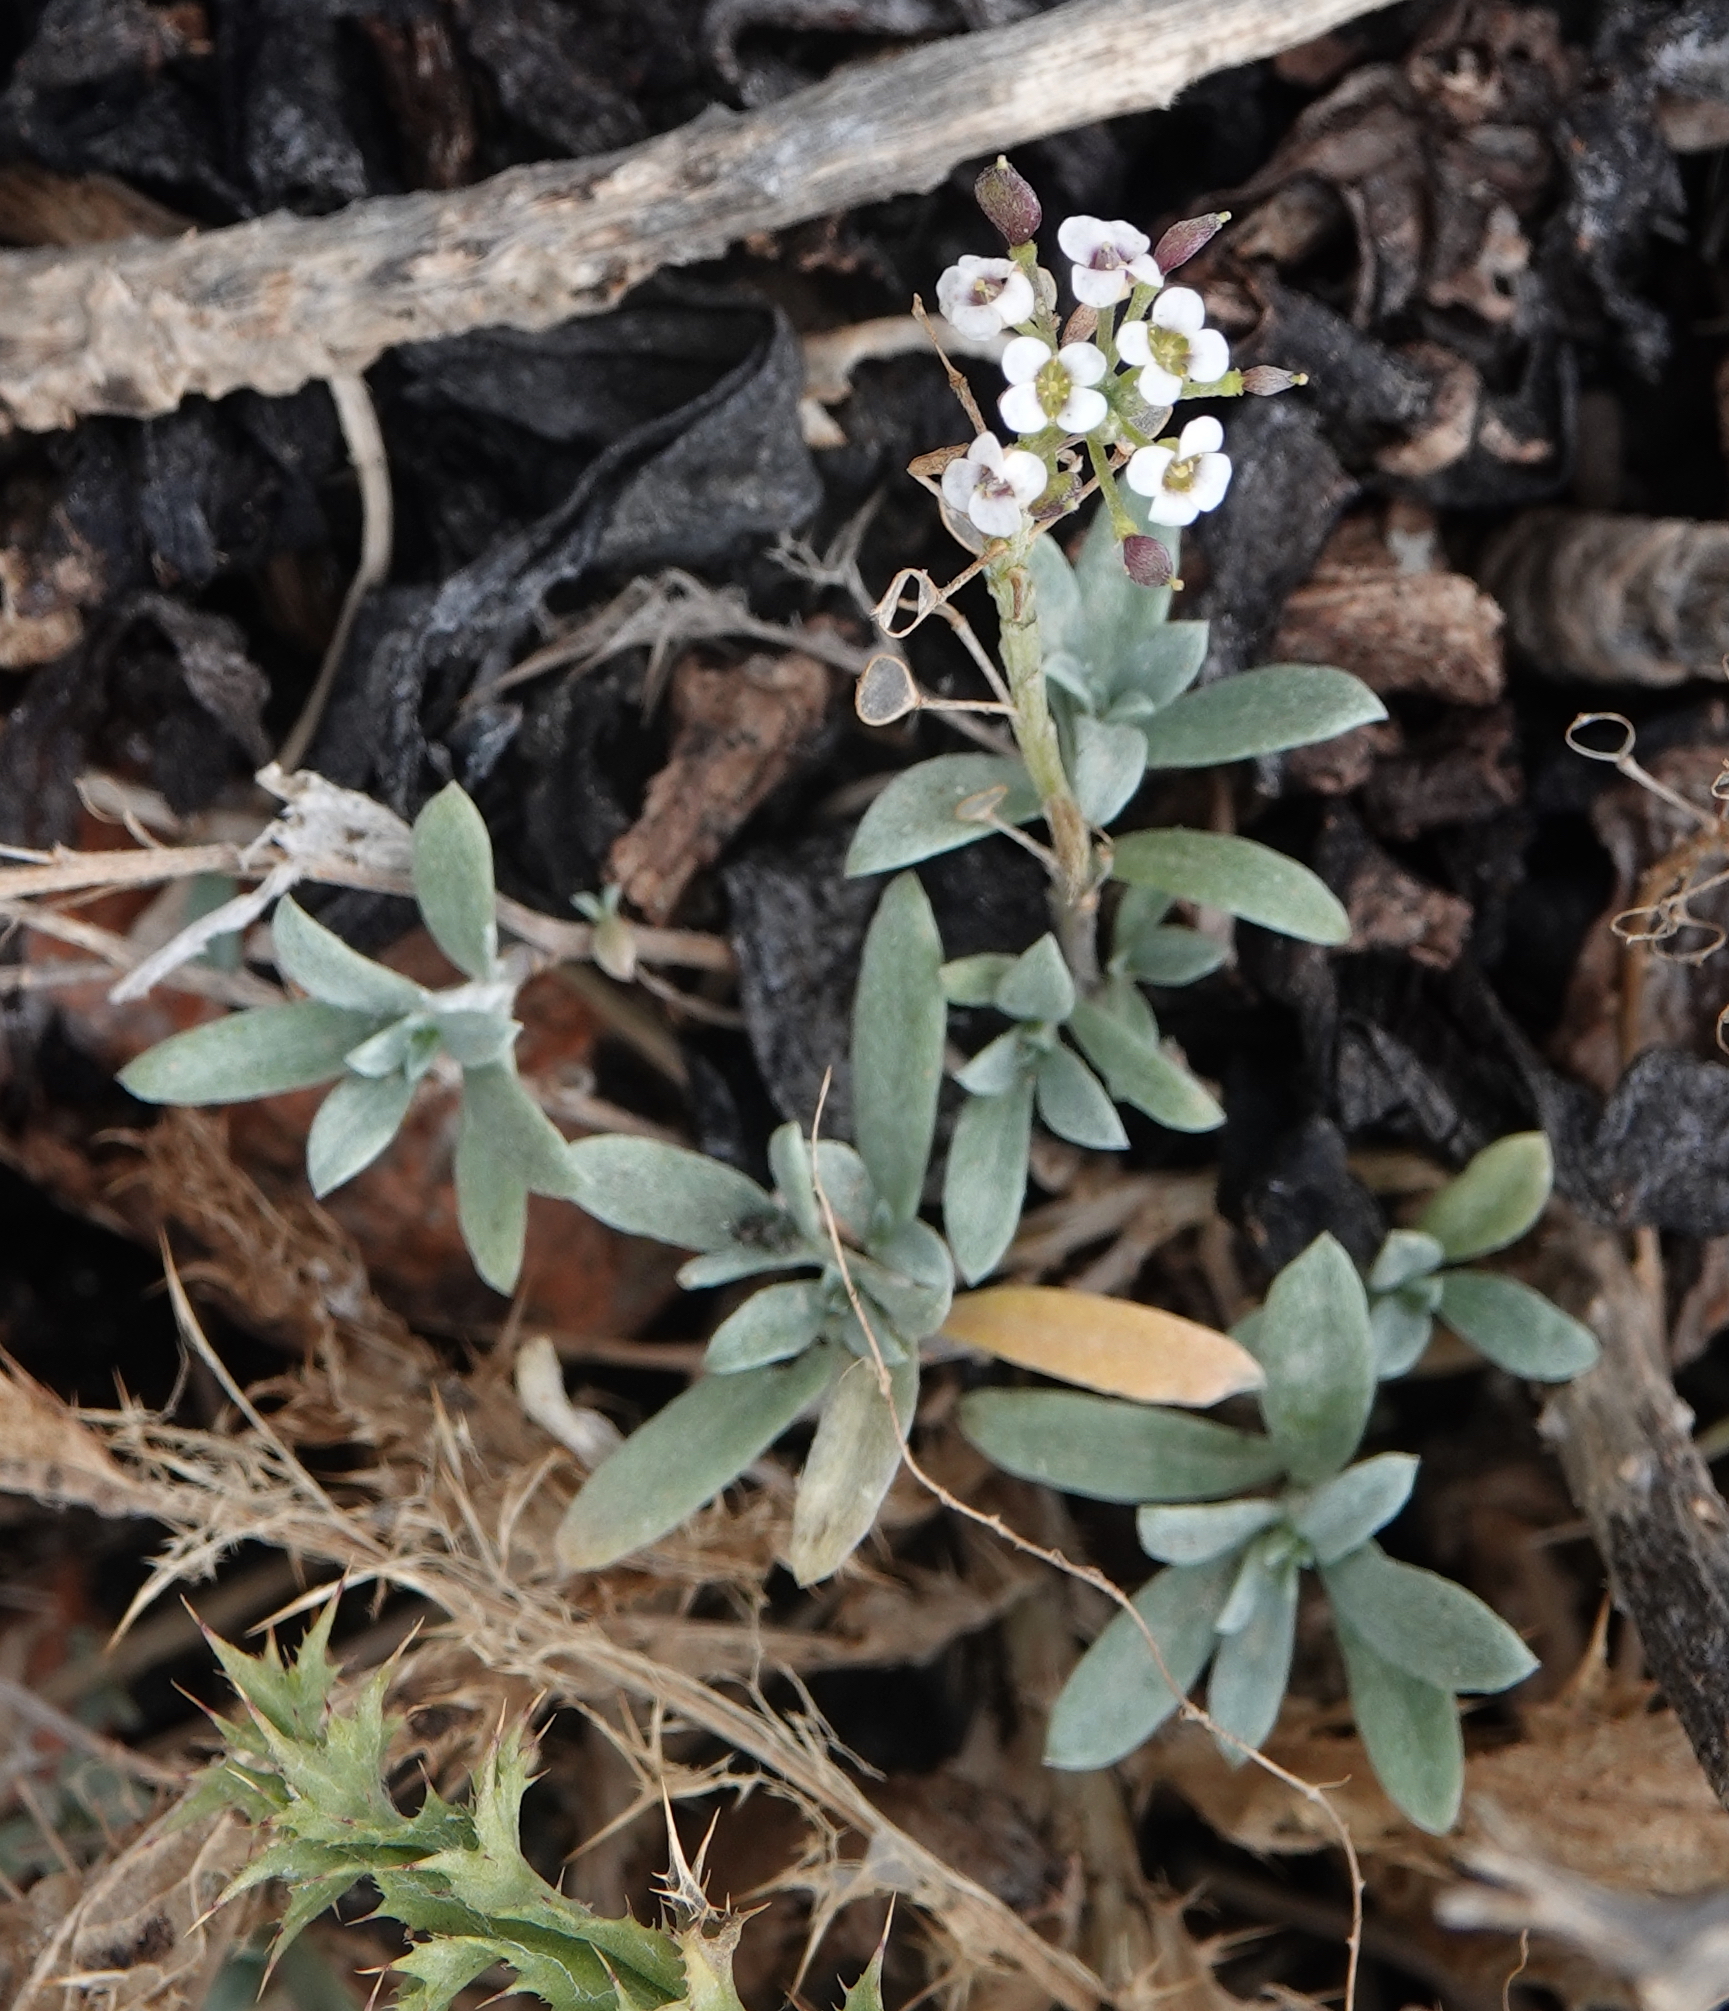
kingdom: Plantae
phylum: Tracheophyta
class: Magnoliopsida
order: Brassicales
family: Brassicaceae
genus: Lobularia
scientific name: Lobularia maritima
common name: Sweet alison
